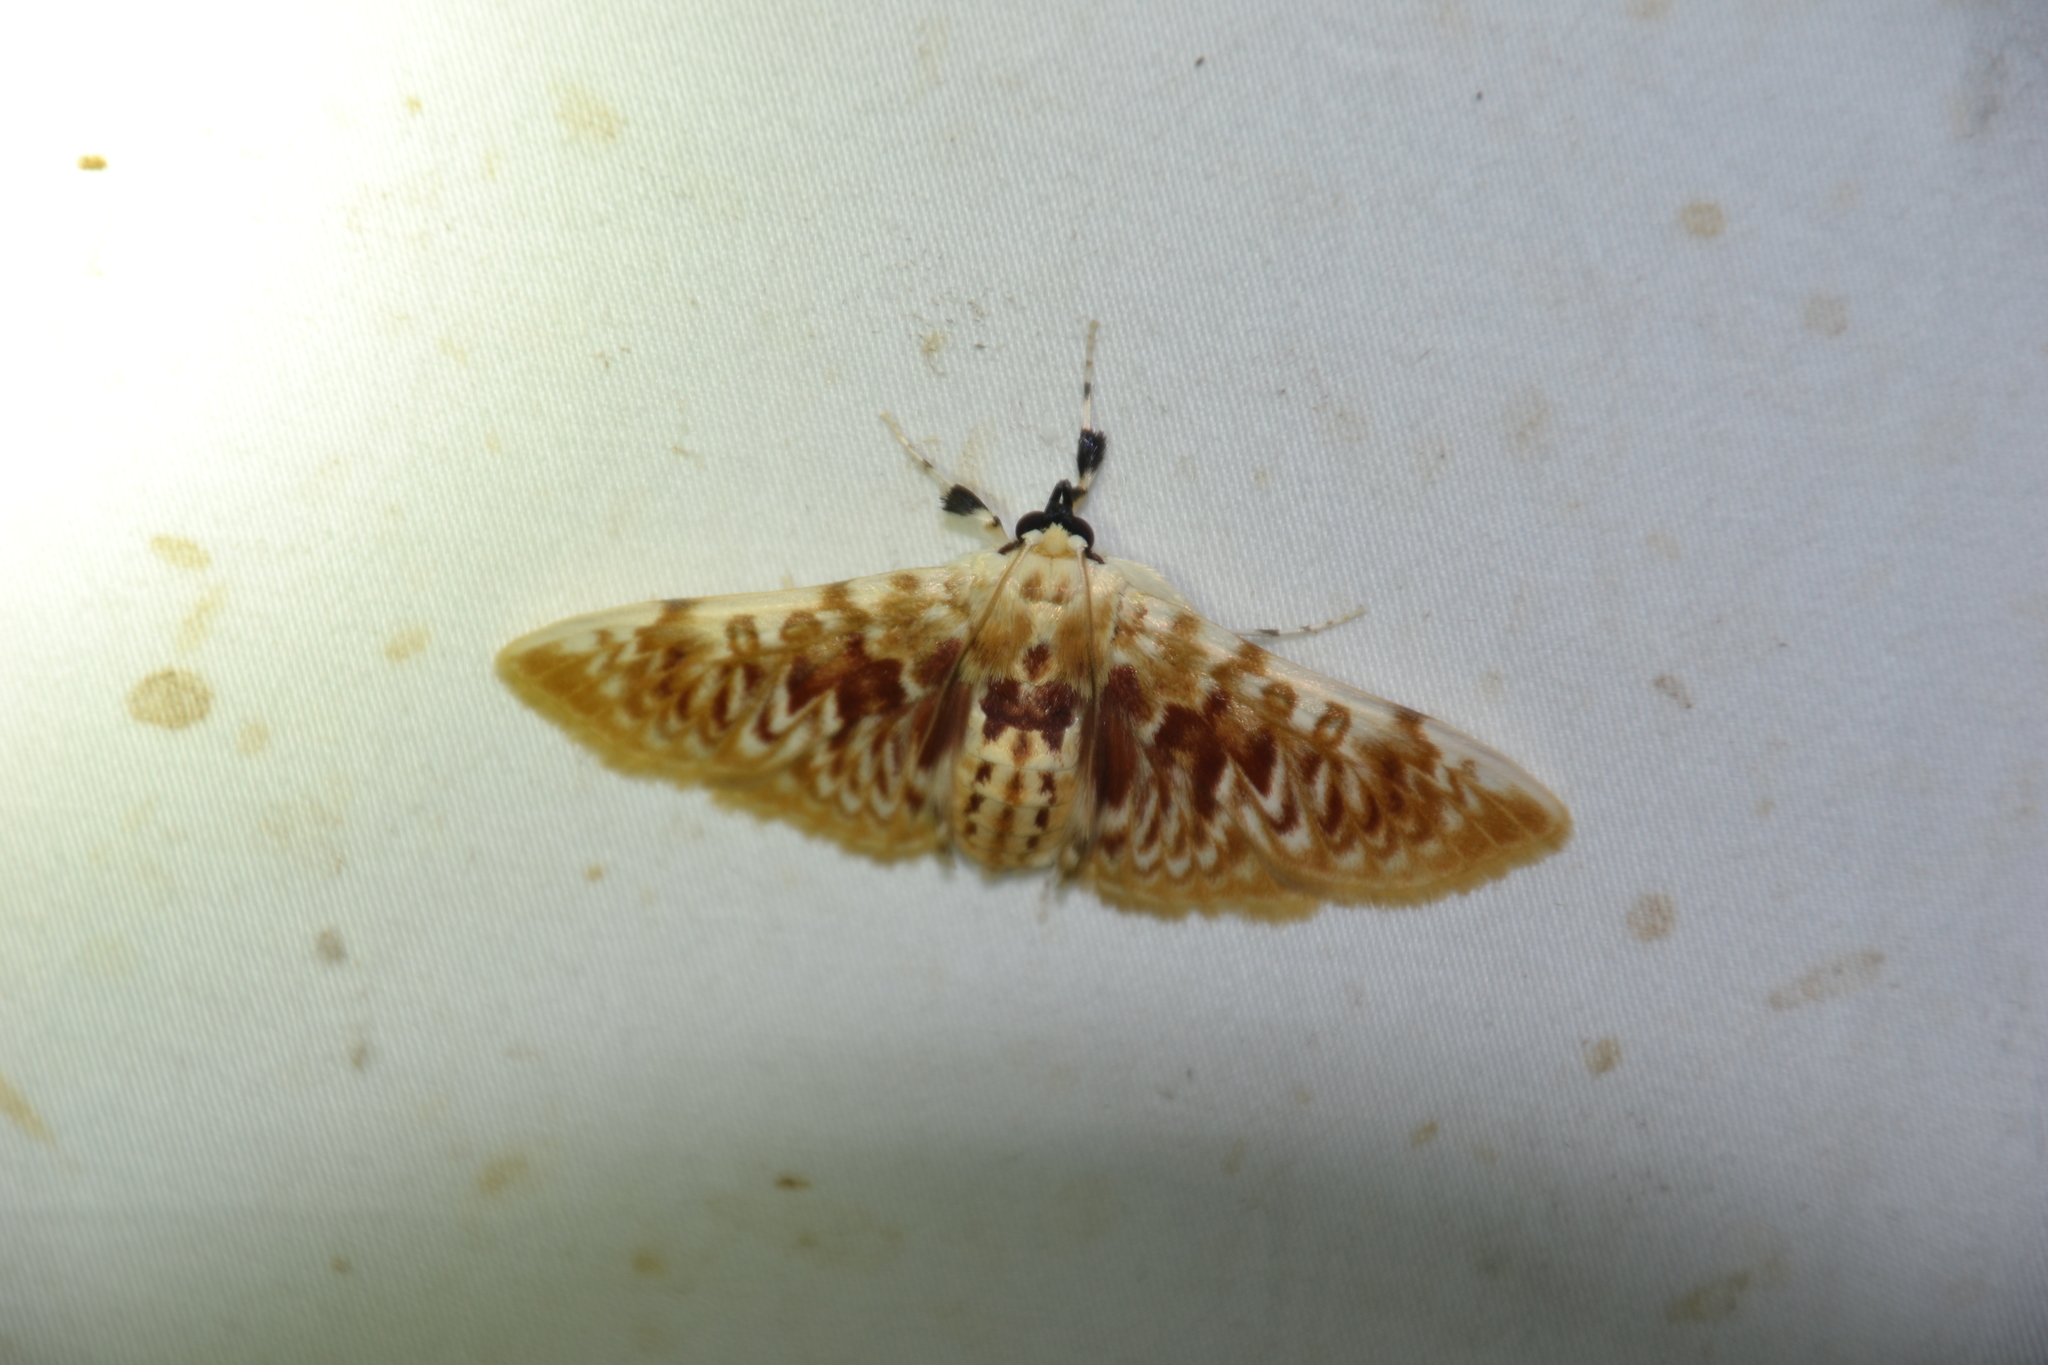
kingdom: Animalia
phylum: Arthropoda
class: Insecta
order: Lepidoptera
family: Crambidae
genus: Polygrammodes
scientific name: Polygrammodes sanguinalis
